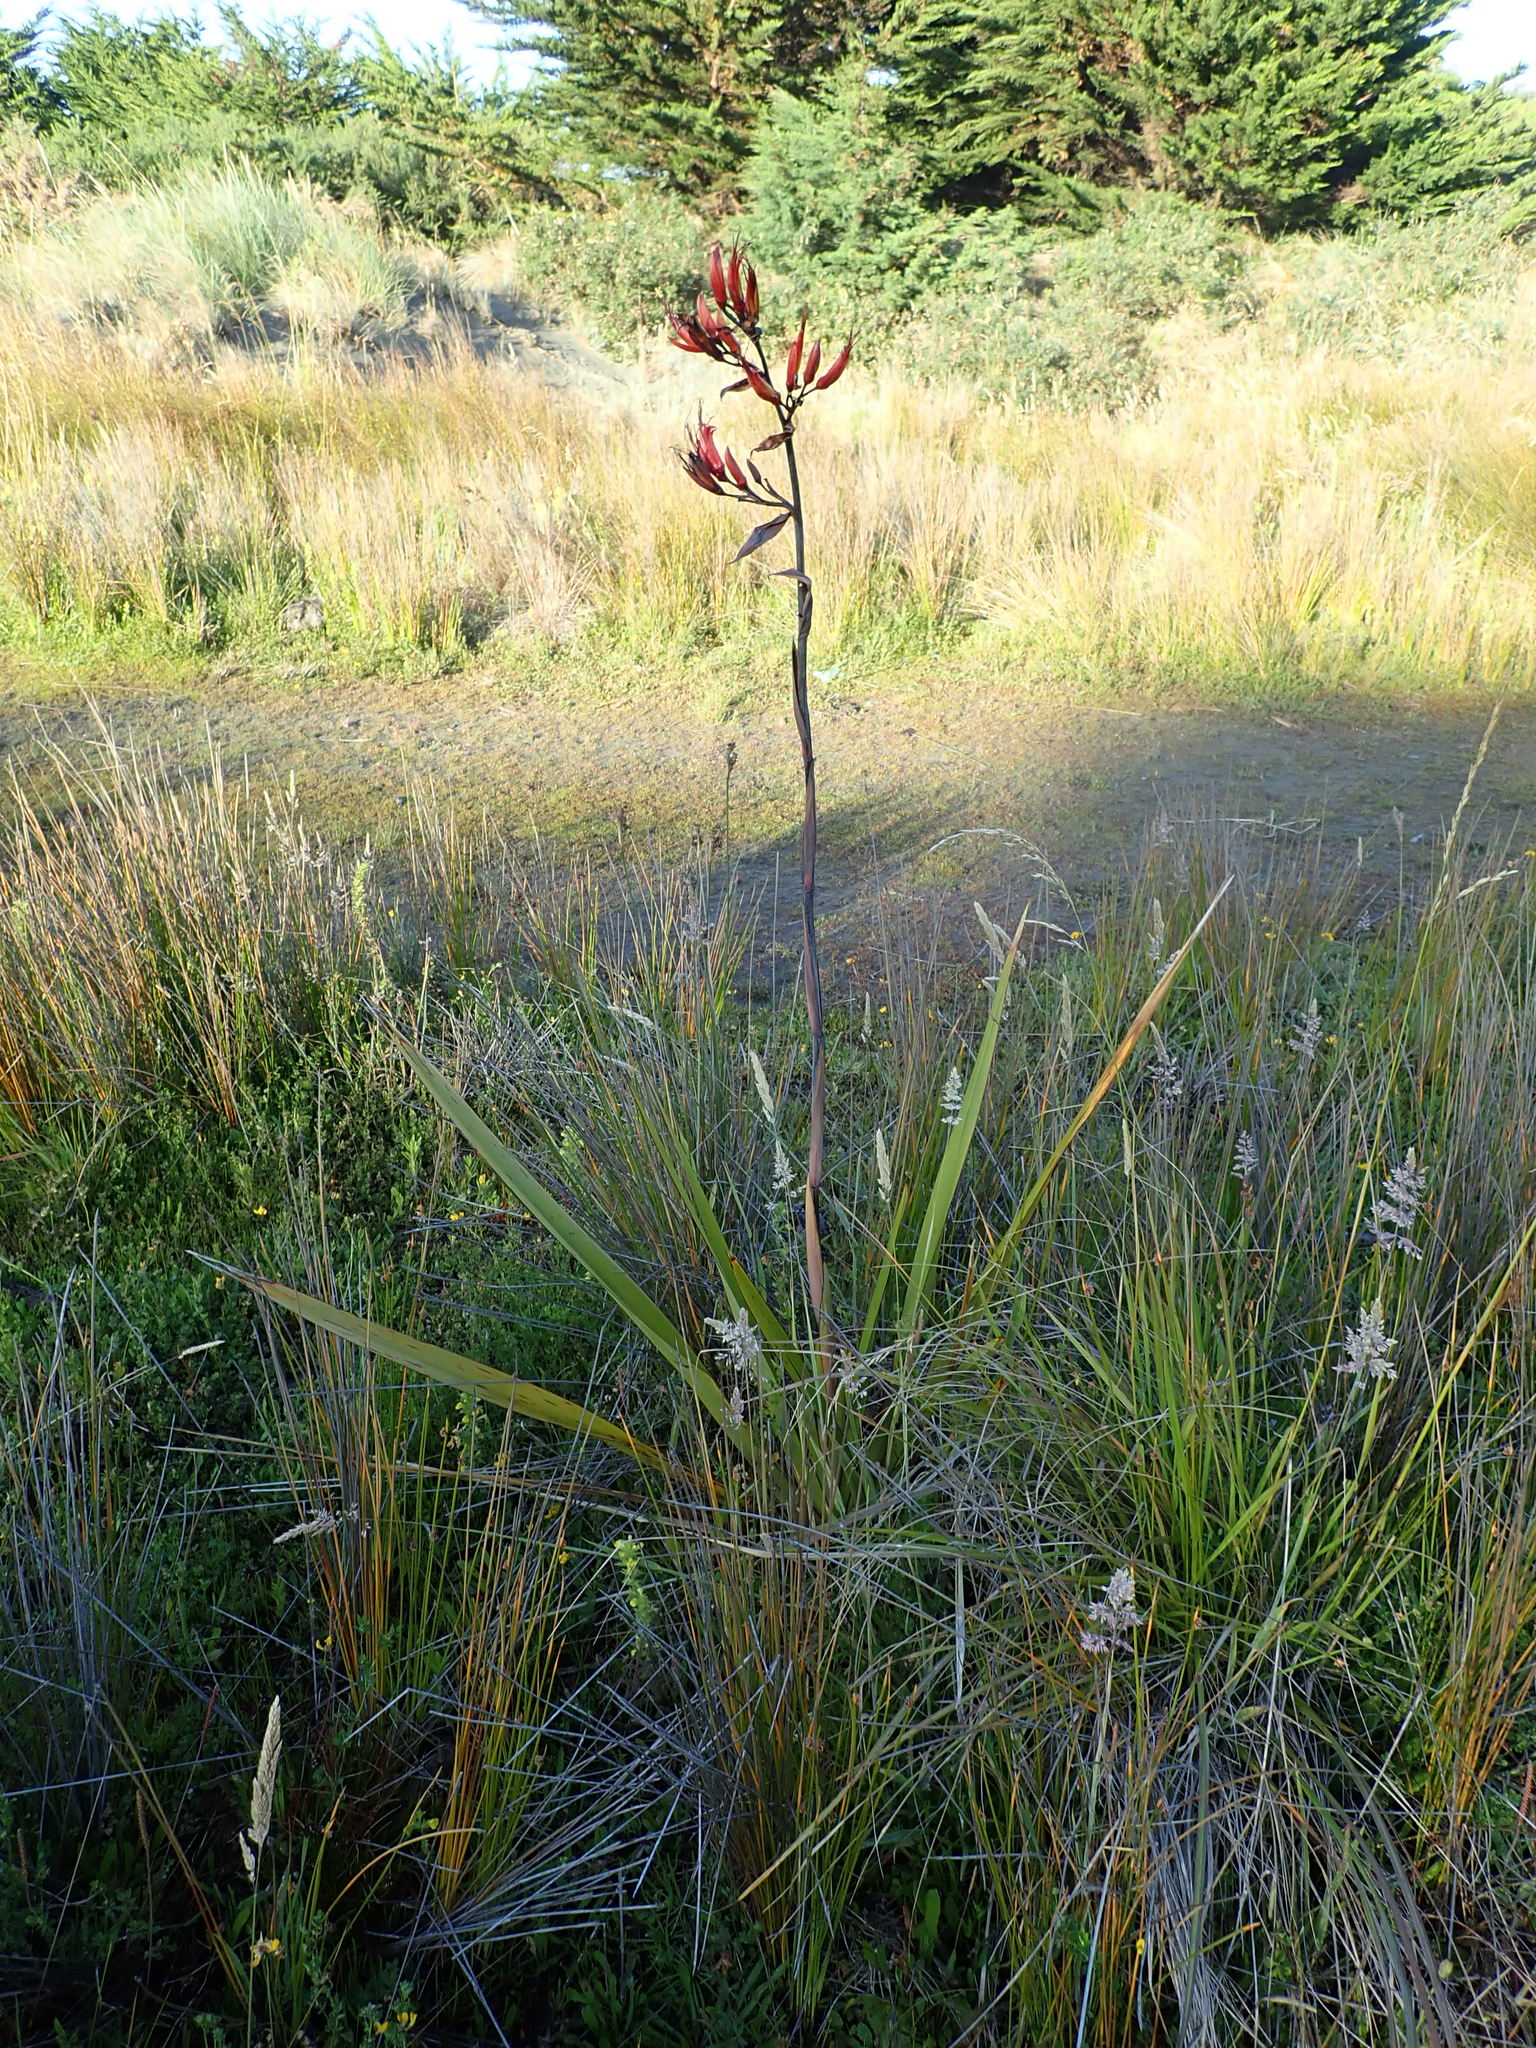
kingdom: Plantae
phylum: Tracheophyta
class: Liliopsida
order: Asparagales
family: Asphodelaceae
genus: Phormium
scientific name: Phormium tenax
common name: New zealand flax
